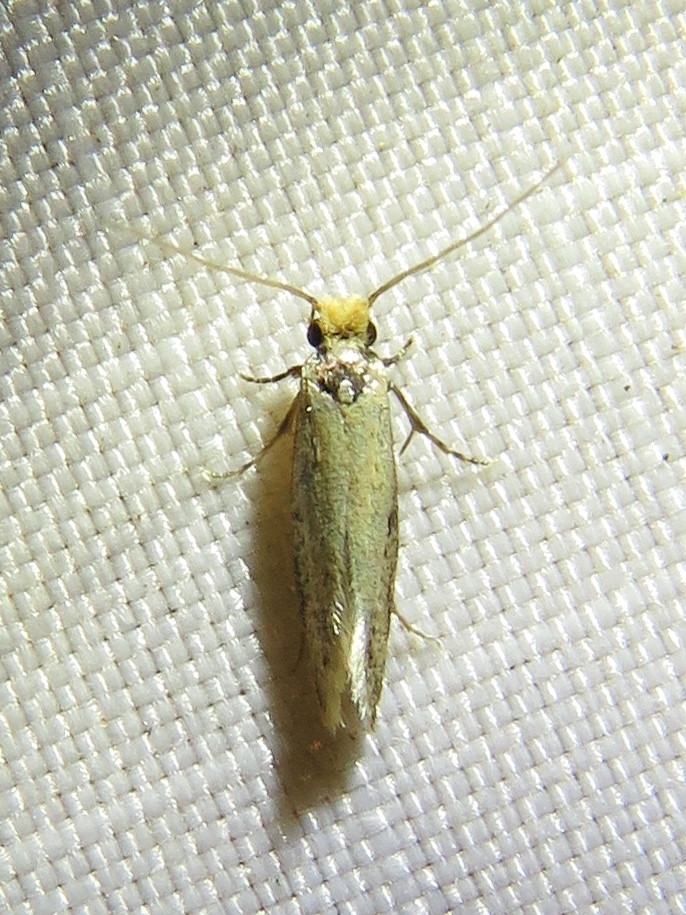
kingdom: Animalia
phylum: Arthropoda
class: Insecta
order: Lepidoptera
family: Meessiidae
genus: Homostinea
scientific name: Homostinea curviliniella
